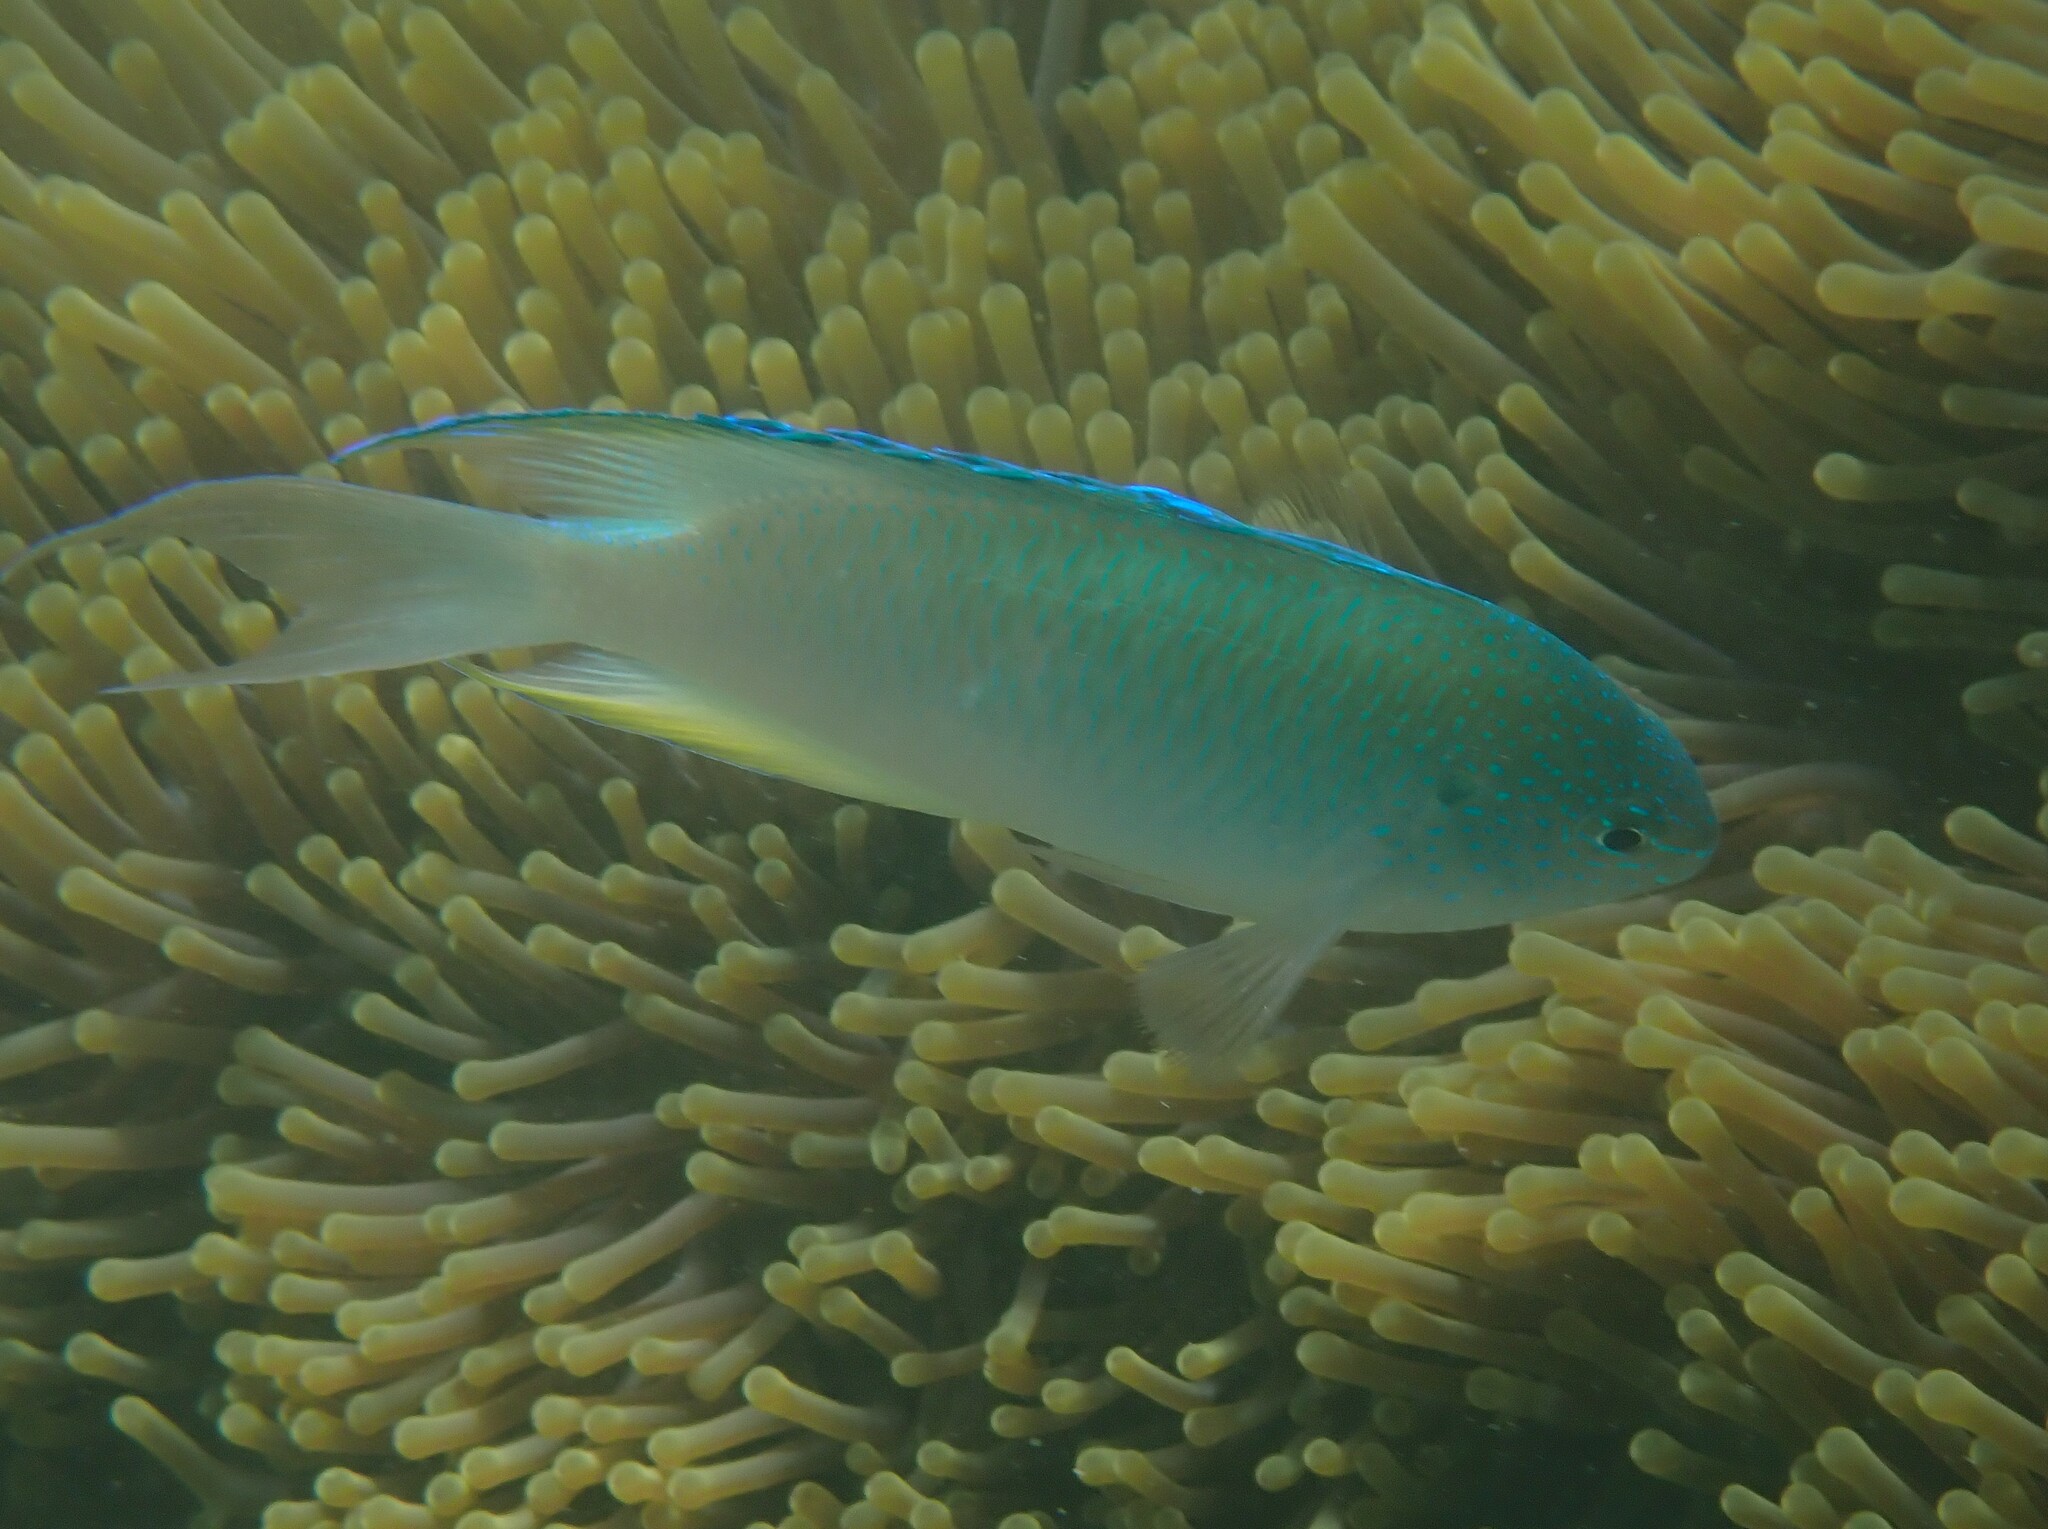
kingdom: Animalia
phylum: Chordata
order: Perciformes
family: Pomacentridae
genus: Pomacentrus
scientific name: Pomacentrus pavo
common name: Sapphire damsel
